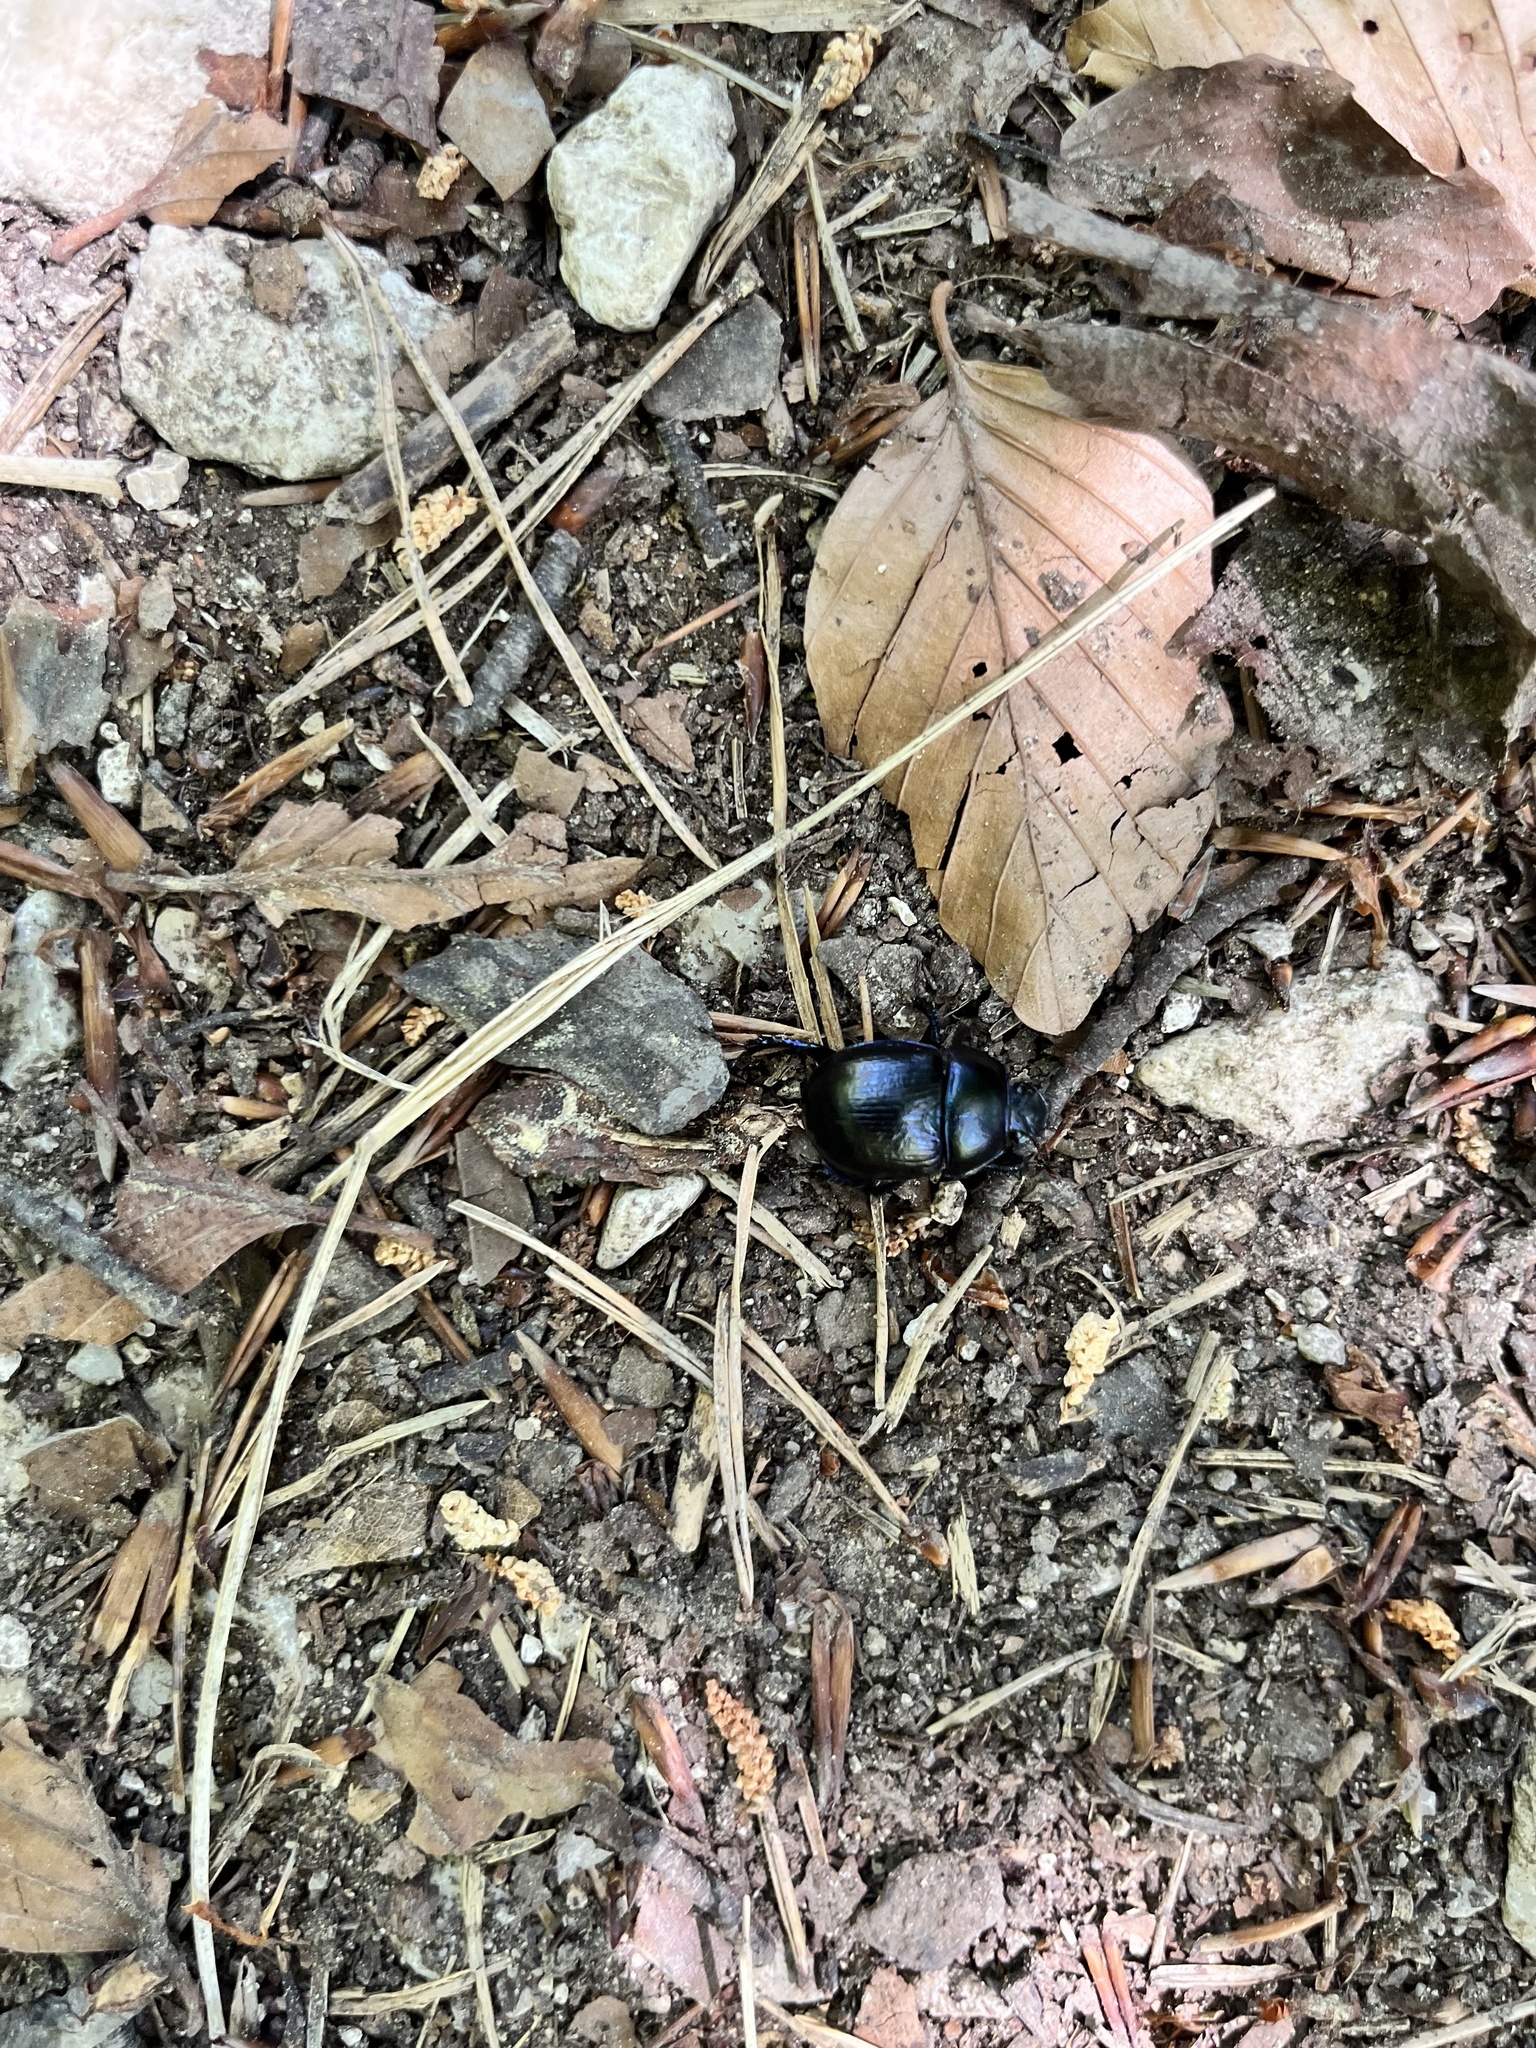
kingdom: Animalia
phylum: Arthropoda
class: Insecta
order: Coleoptera
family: Geotrupidae
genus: Anoplotrupes
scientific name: Anoplotrupes stercorosus
